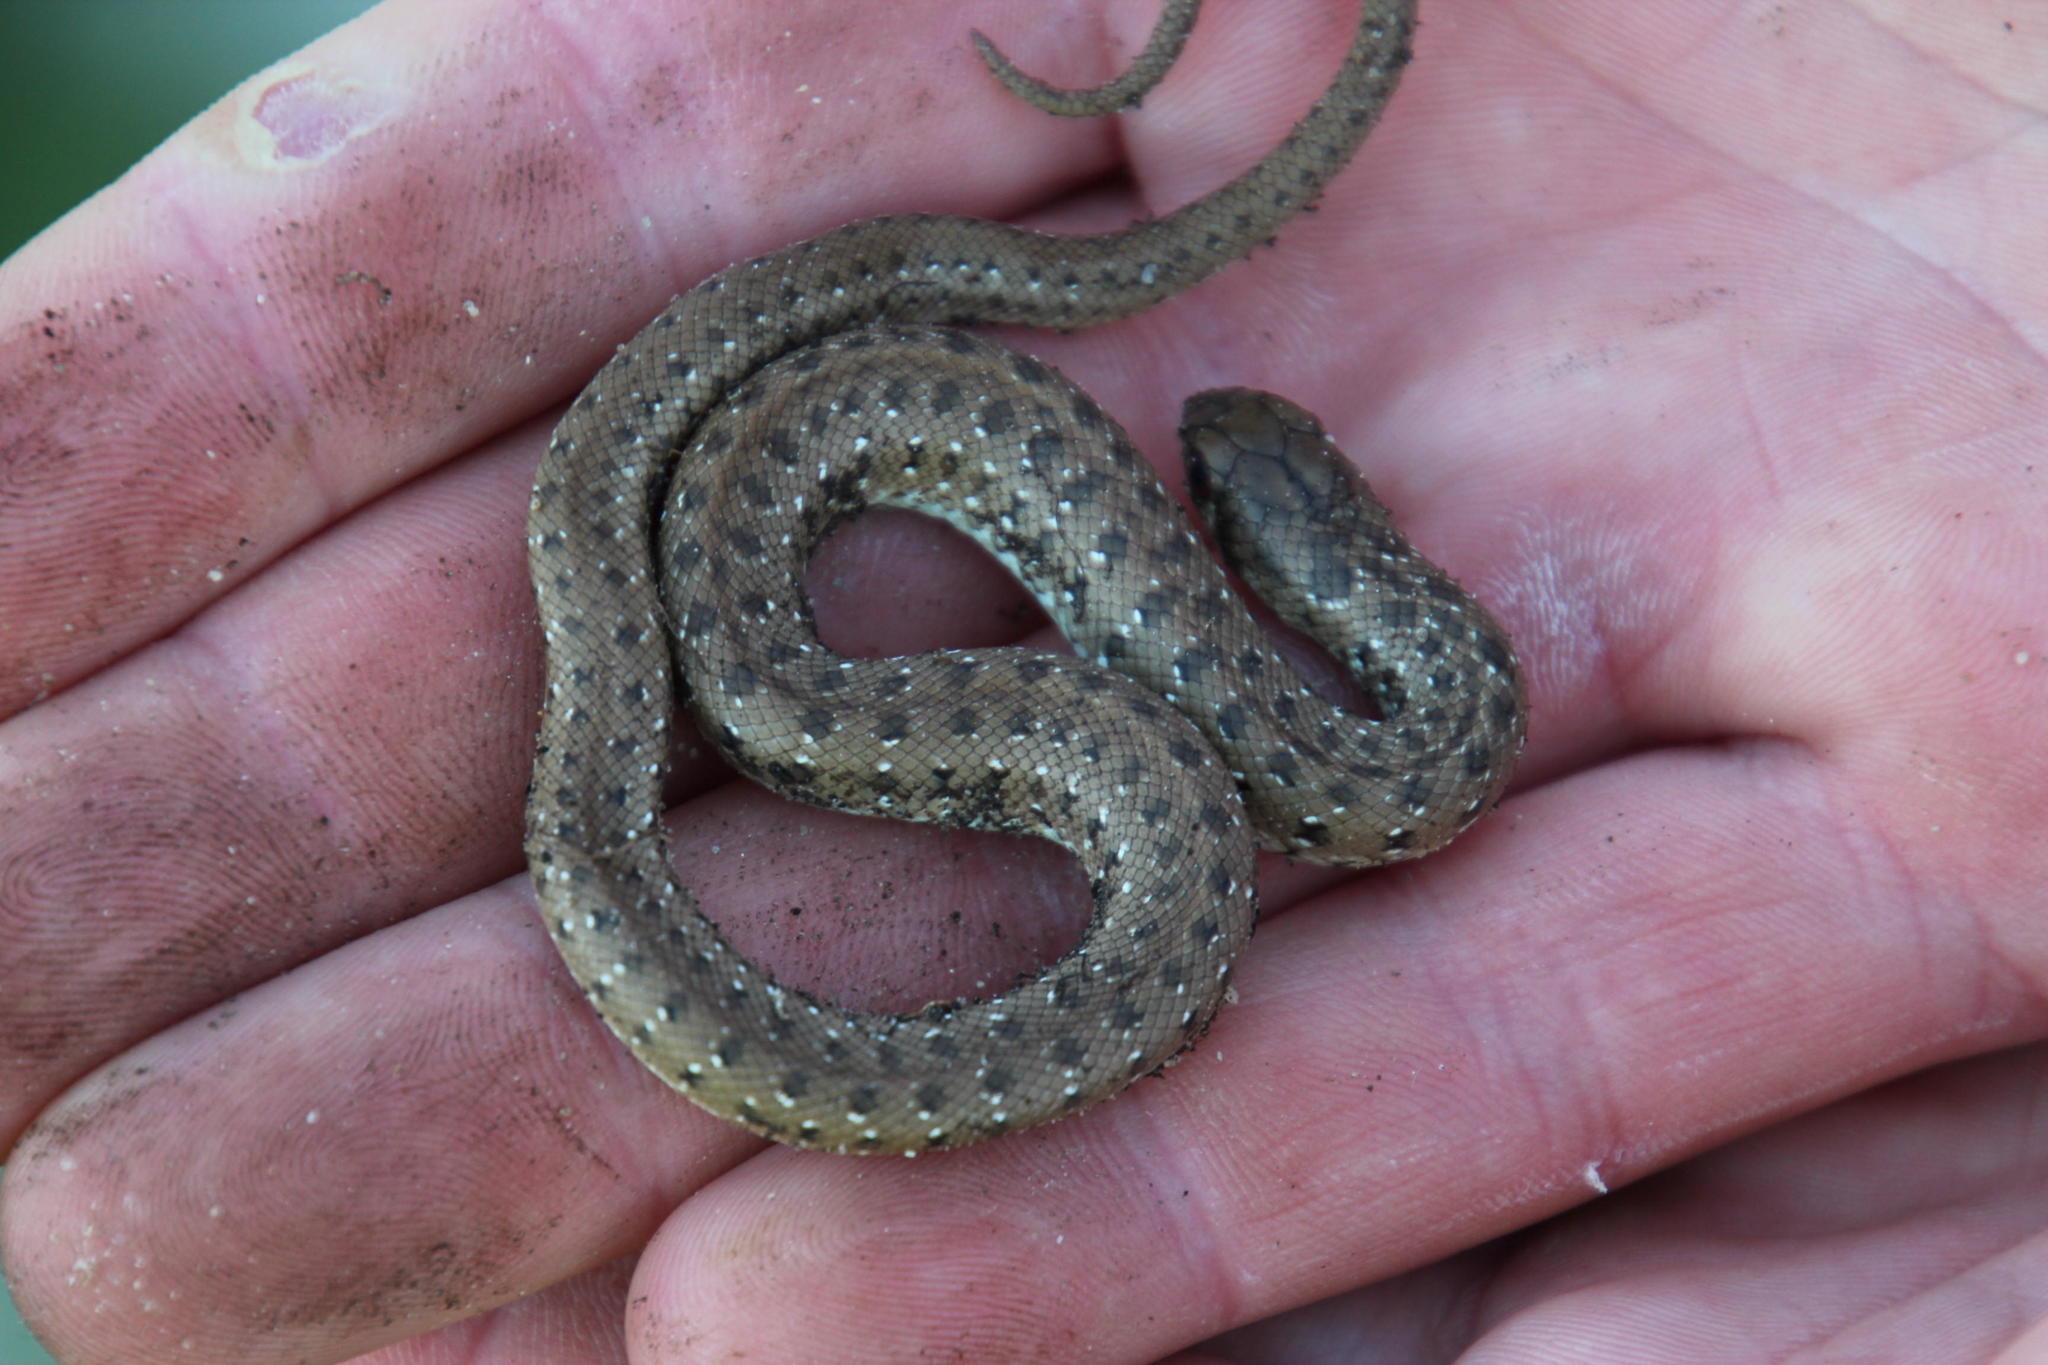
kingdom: Animalia
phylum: Chordata
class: Squamata
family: Pseudaspididae
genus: Pseudaspis
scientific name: Pseudaspis cana
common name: Mole snake
